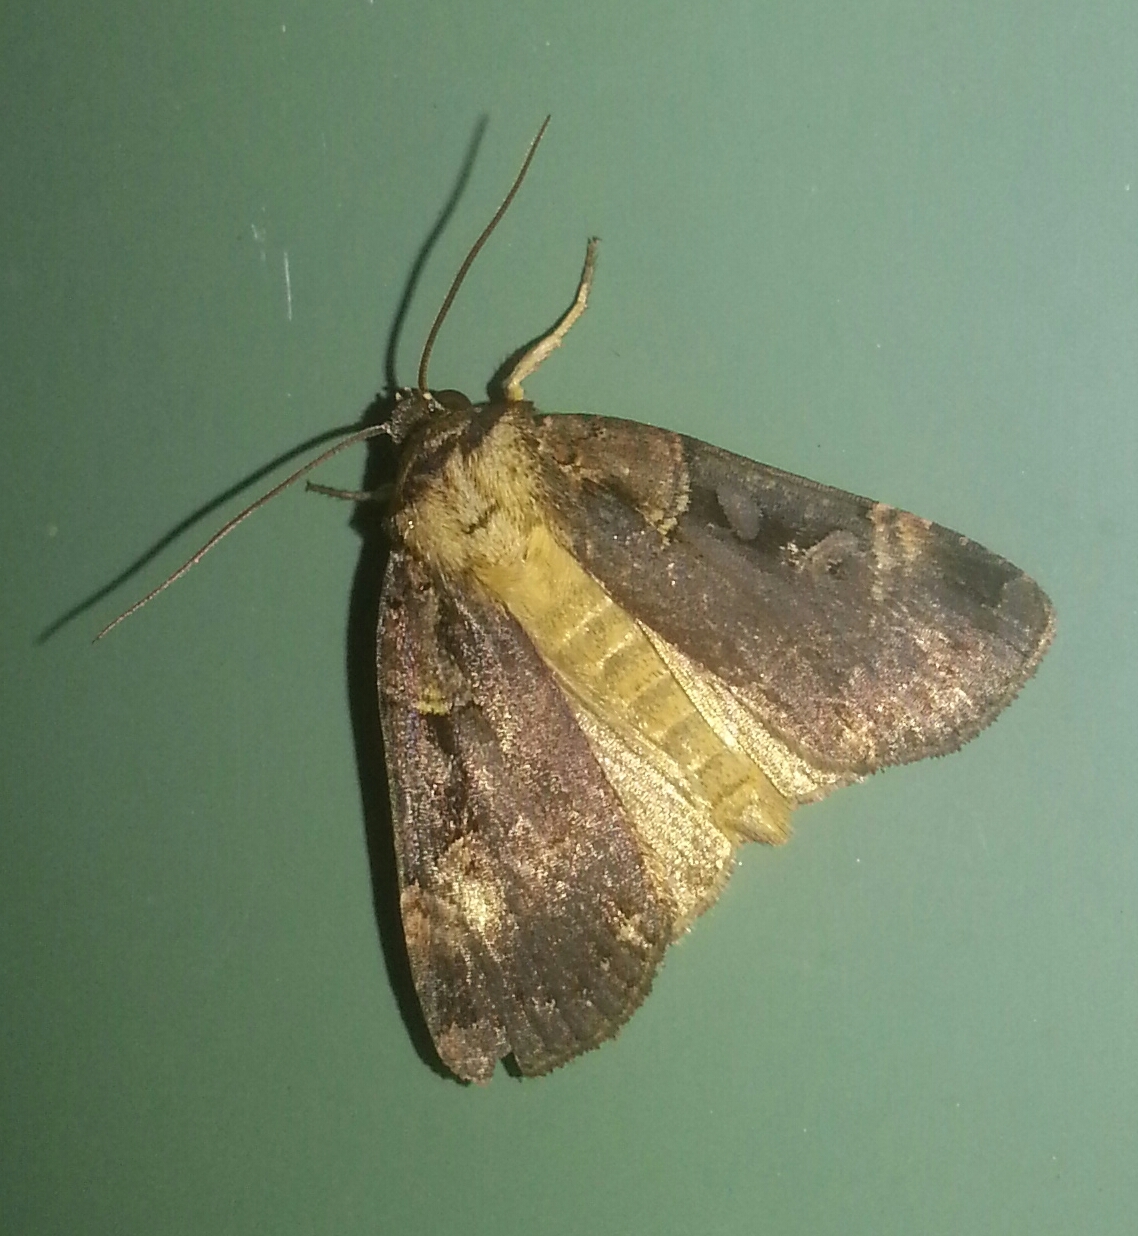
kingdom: Animalia
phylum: Arthropoda
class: Insecta
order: Lepidoptera
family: Noctuidae
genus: Pseudohermonassa
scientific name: Pseudohermonassa bicarnea
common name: Pink spotted dart
